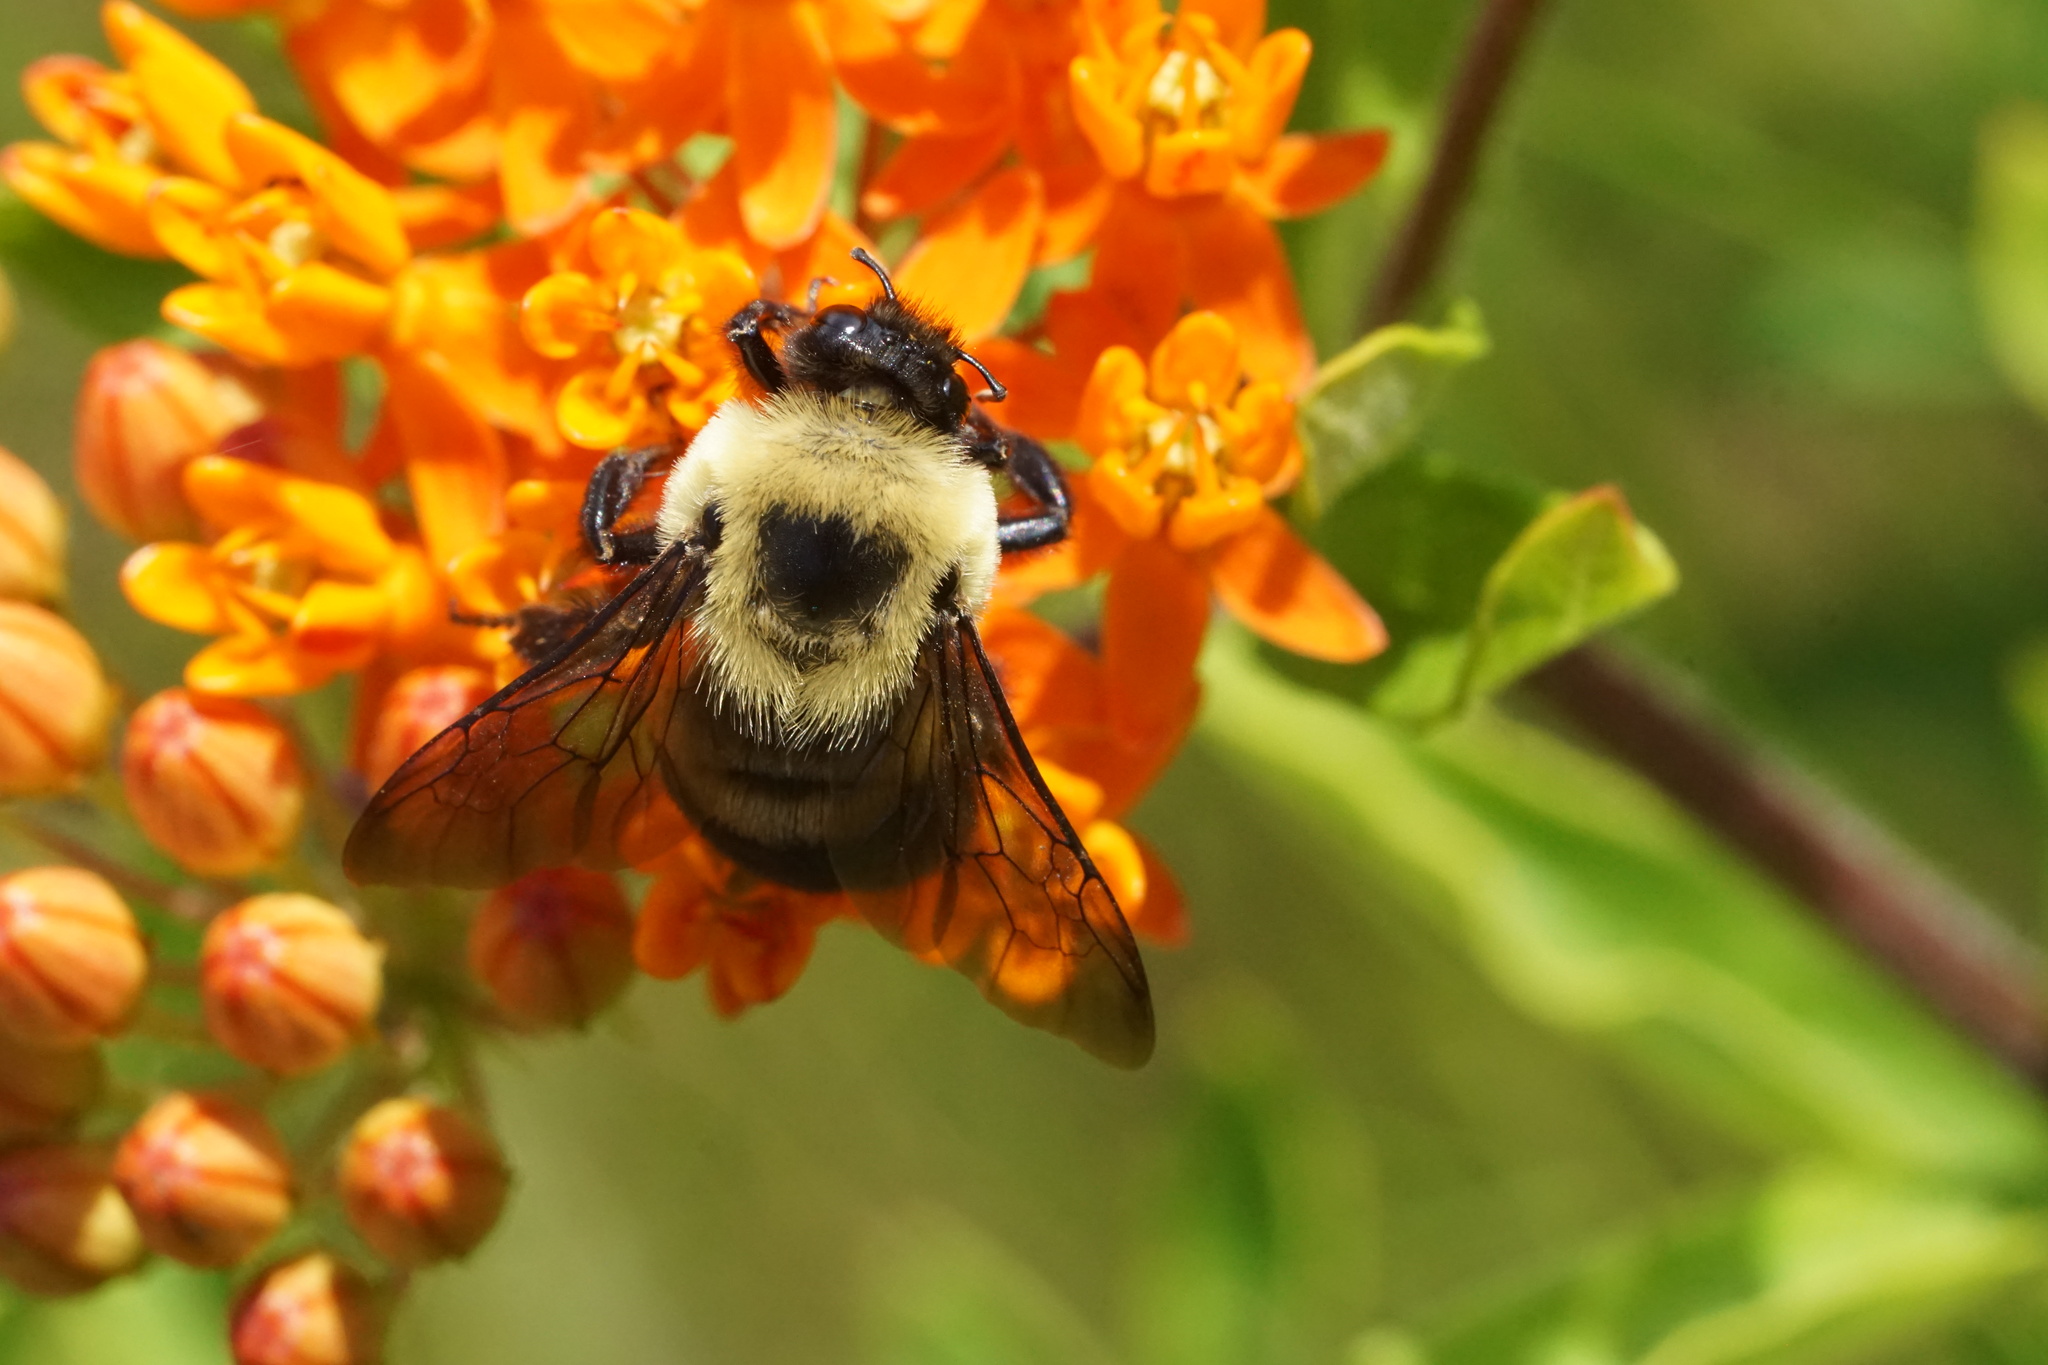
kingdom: Animalia
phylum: Arthropoda
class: Insecta
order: Hymenoptera
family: Apidae
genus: Bombus
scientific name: Bombus griseocollis
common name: Brown-belted bumble bee
